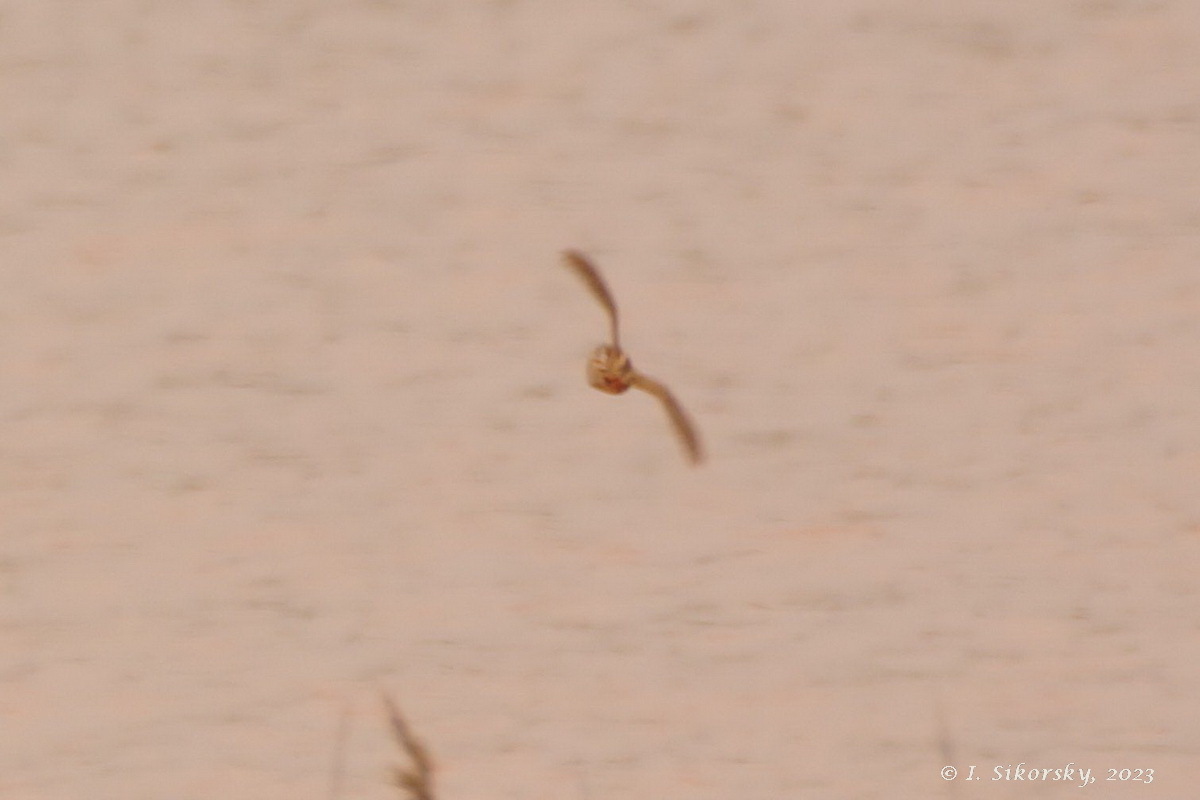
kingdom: Animalia
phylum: Chordata
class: Aves
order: Galliformes
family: Phasianidae
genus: Coturnix
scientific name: Coturnix coturnix
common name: Common quail
